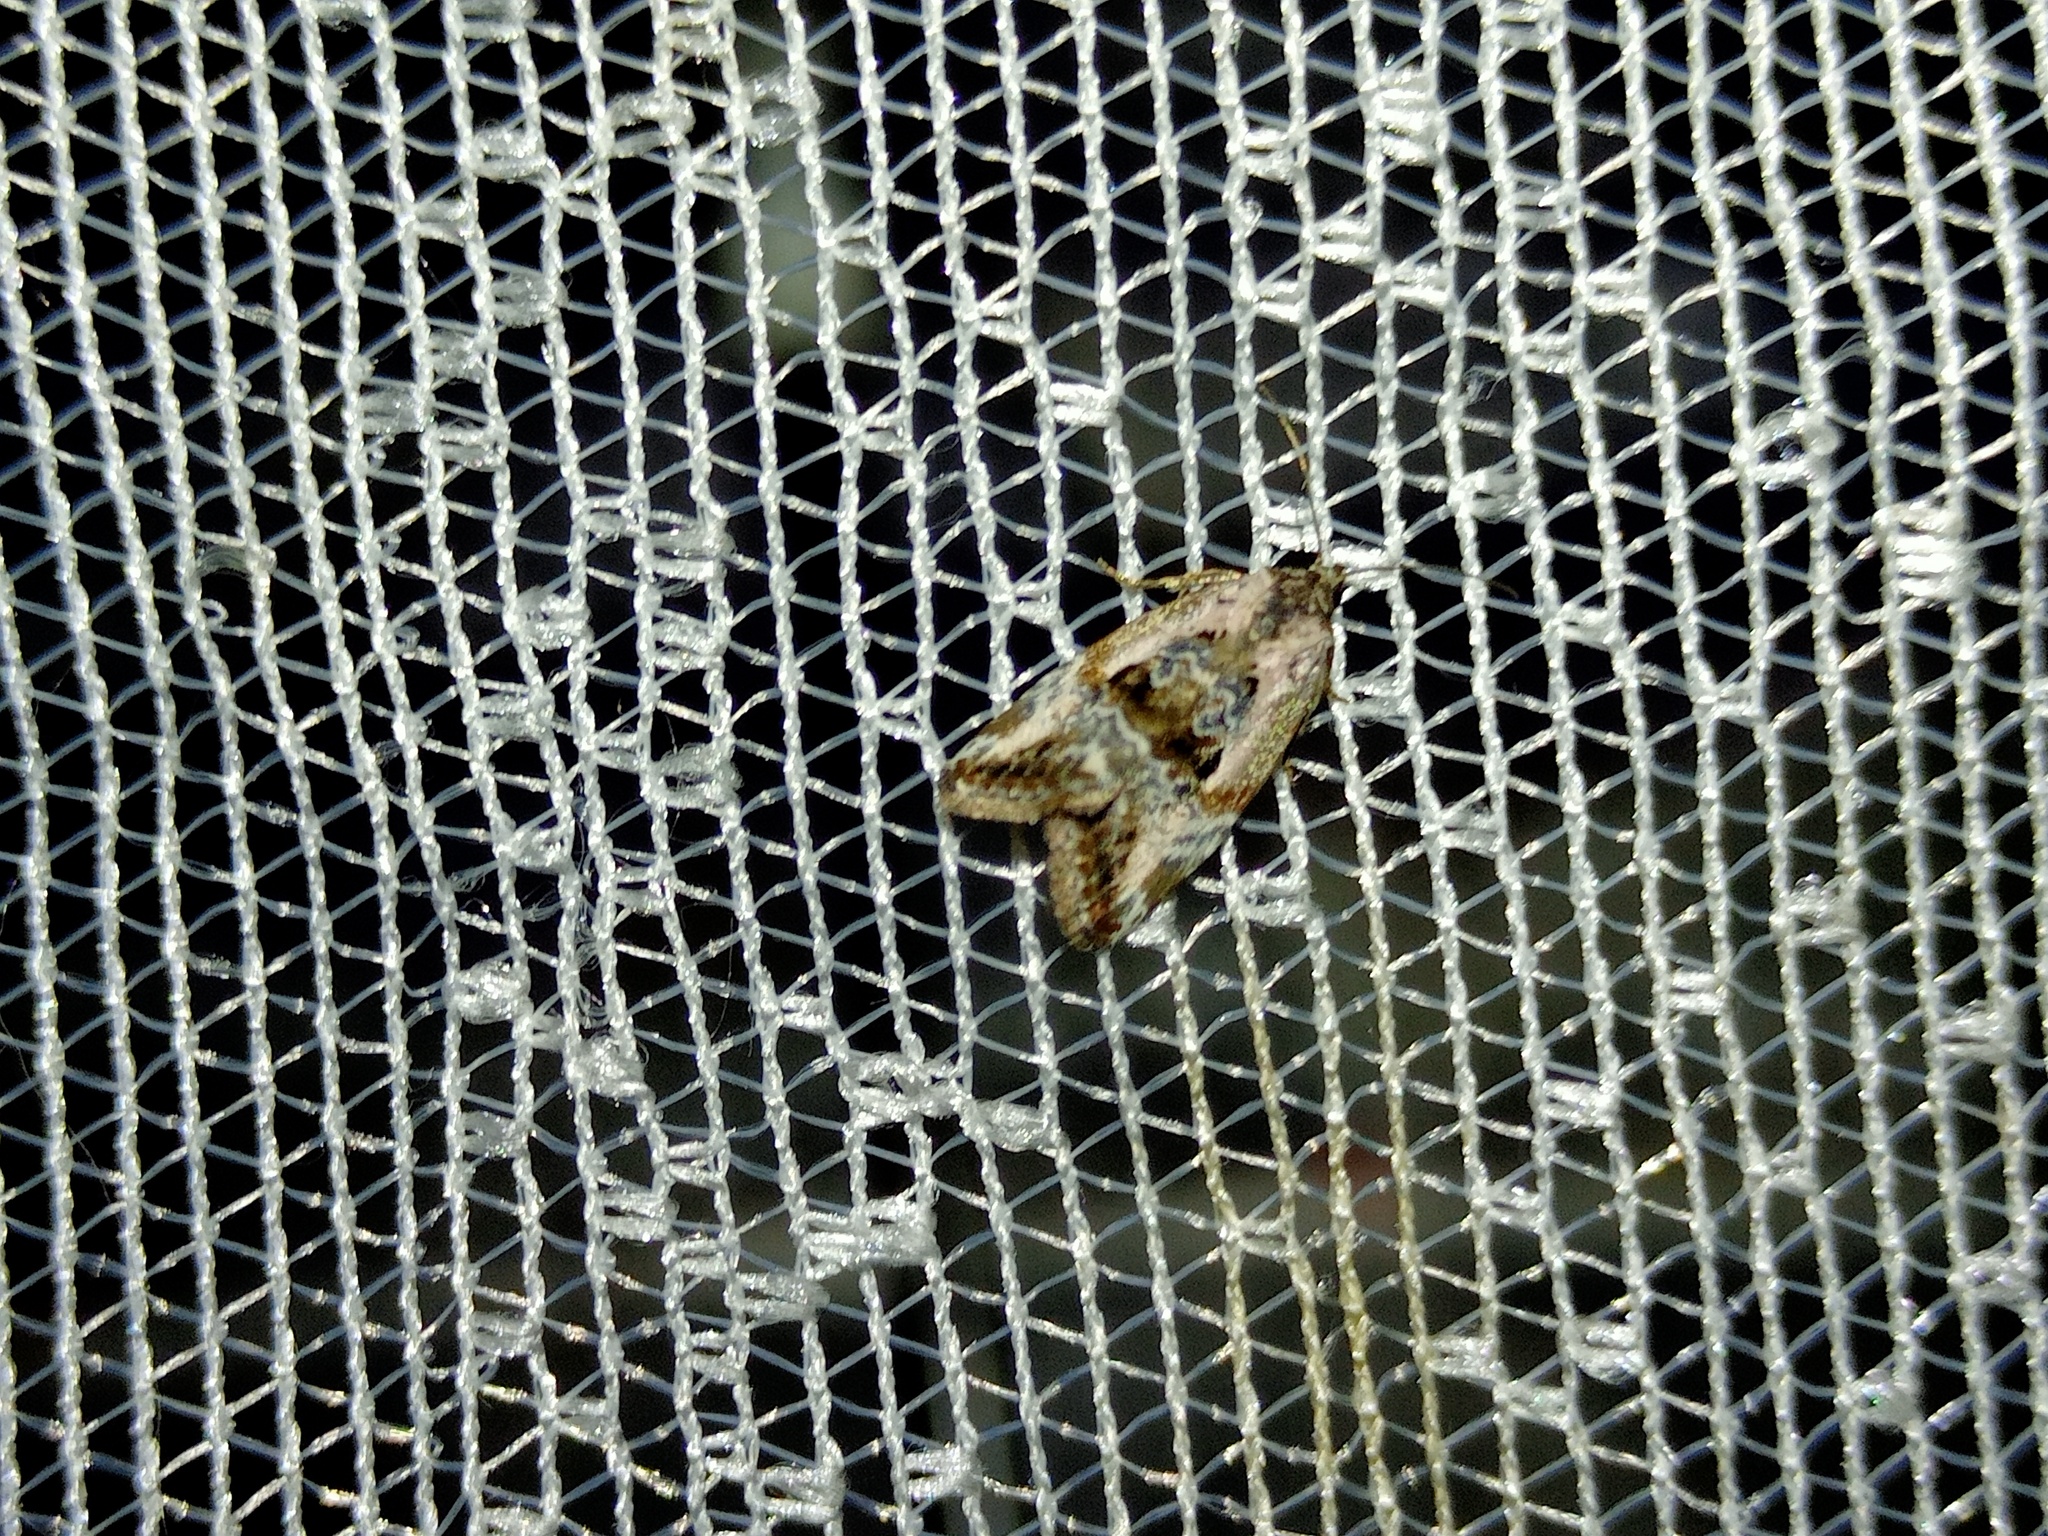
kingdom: Animalia
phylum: Arthropoda
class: Insecta
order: Lepidoptera
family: Noctuidae
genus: Elaphria
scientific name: Elaphria venustula
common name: Rosy marbled
